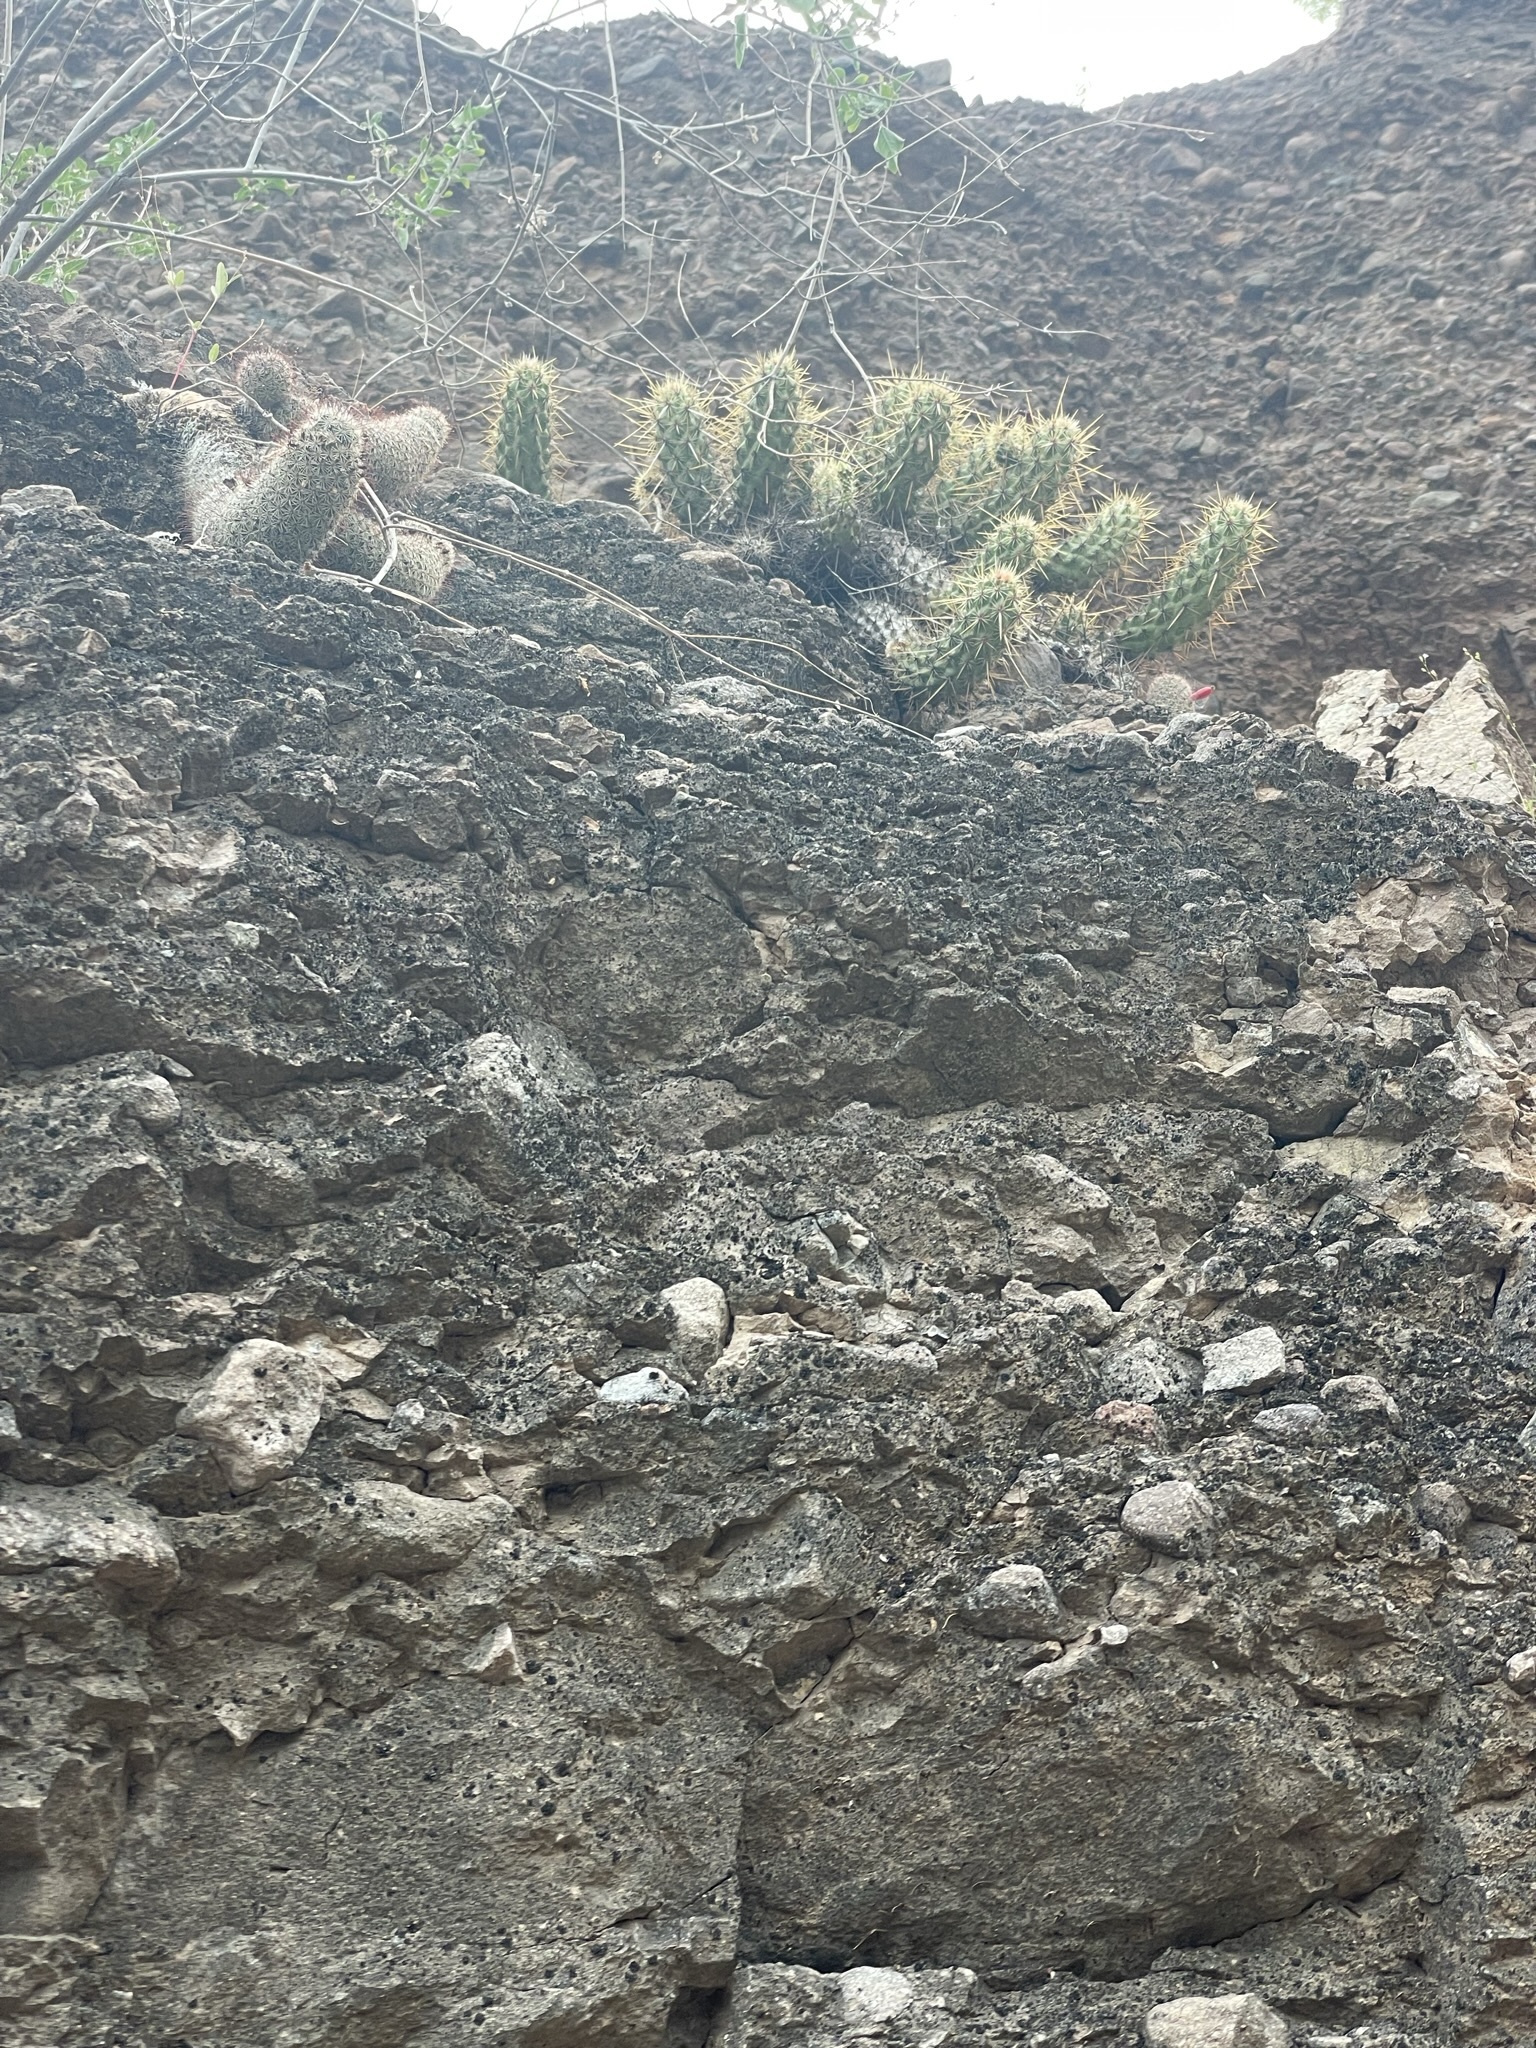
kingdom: Plantae
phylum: Tracheophyta
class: Magnoliopsida
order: Caryophyllales
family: Cactaceae
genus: Echinocereus
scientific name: Echinocereus brandegeei
